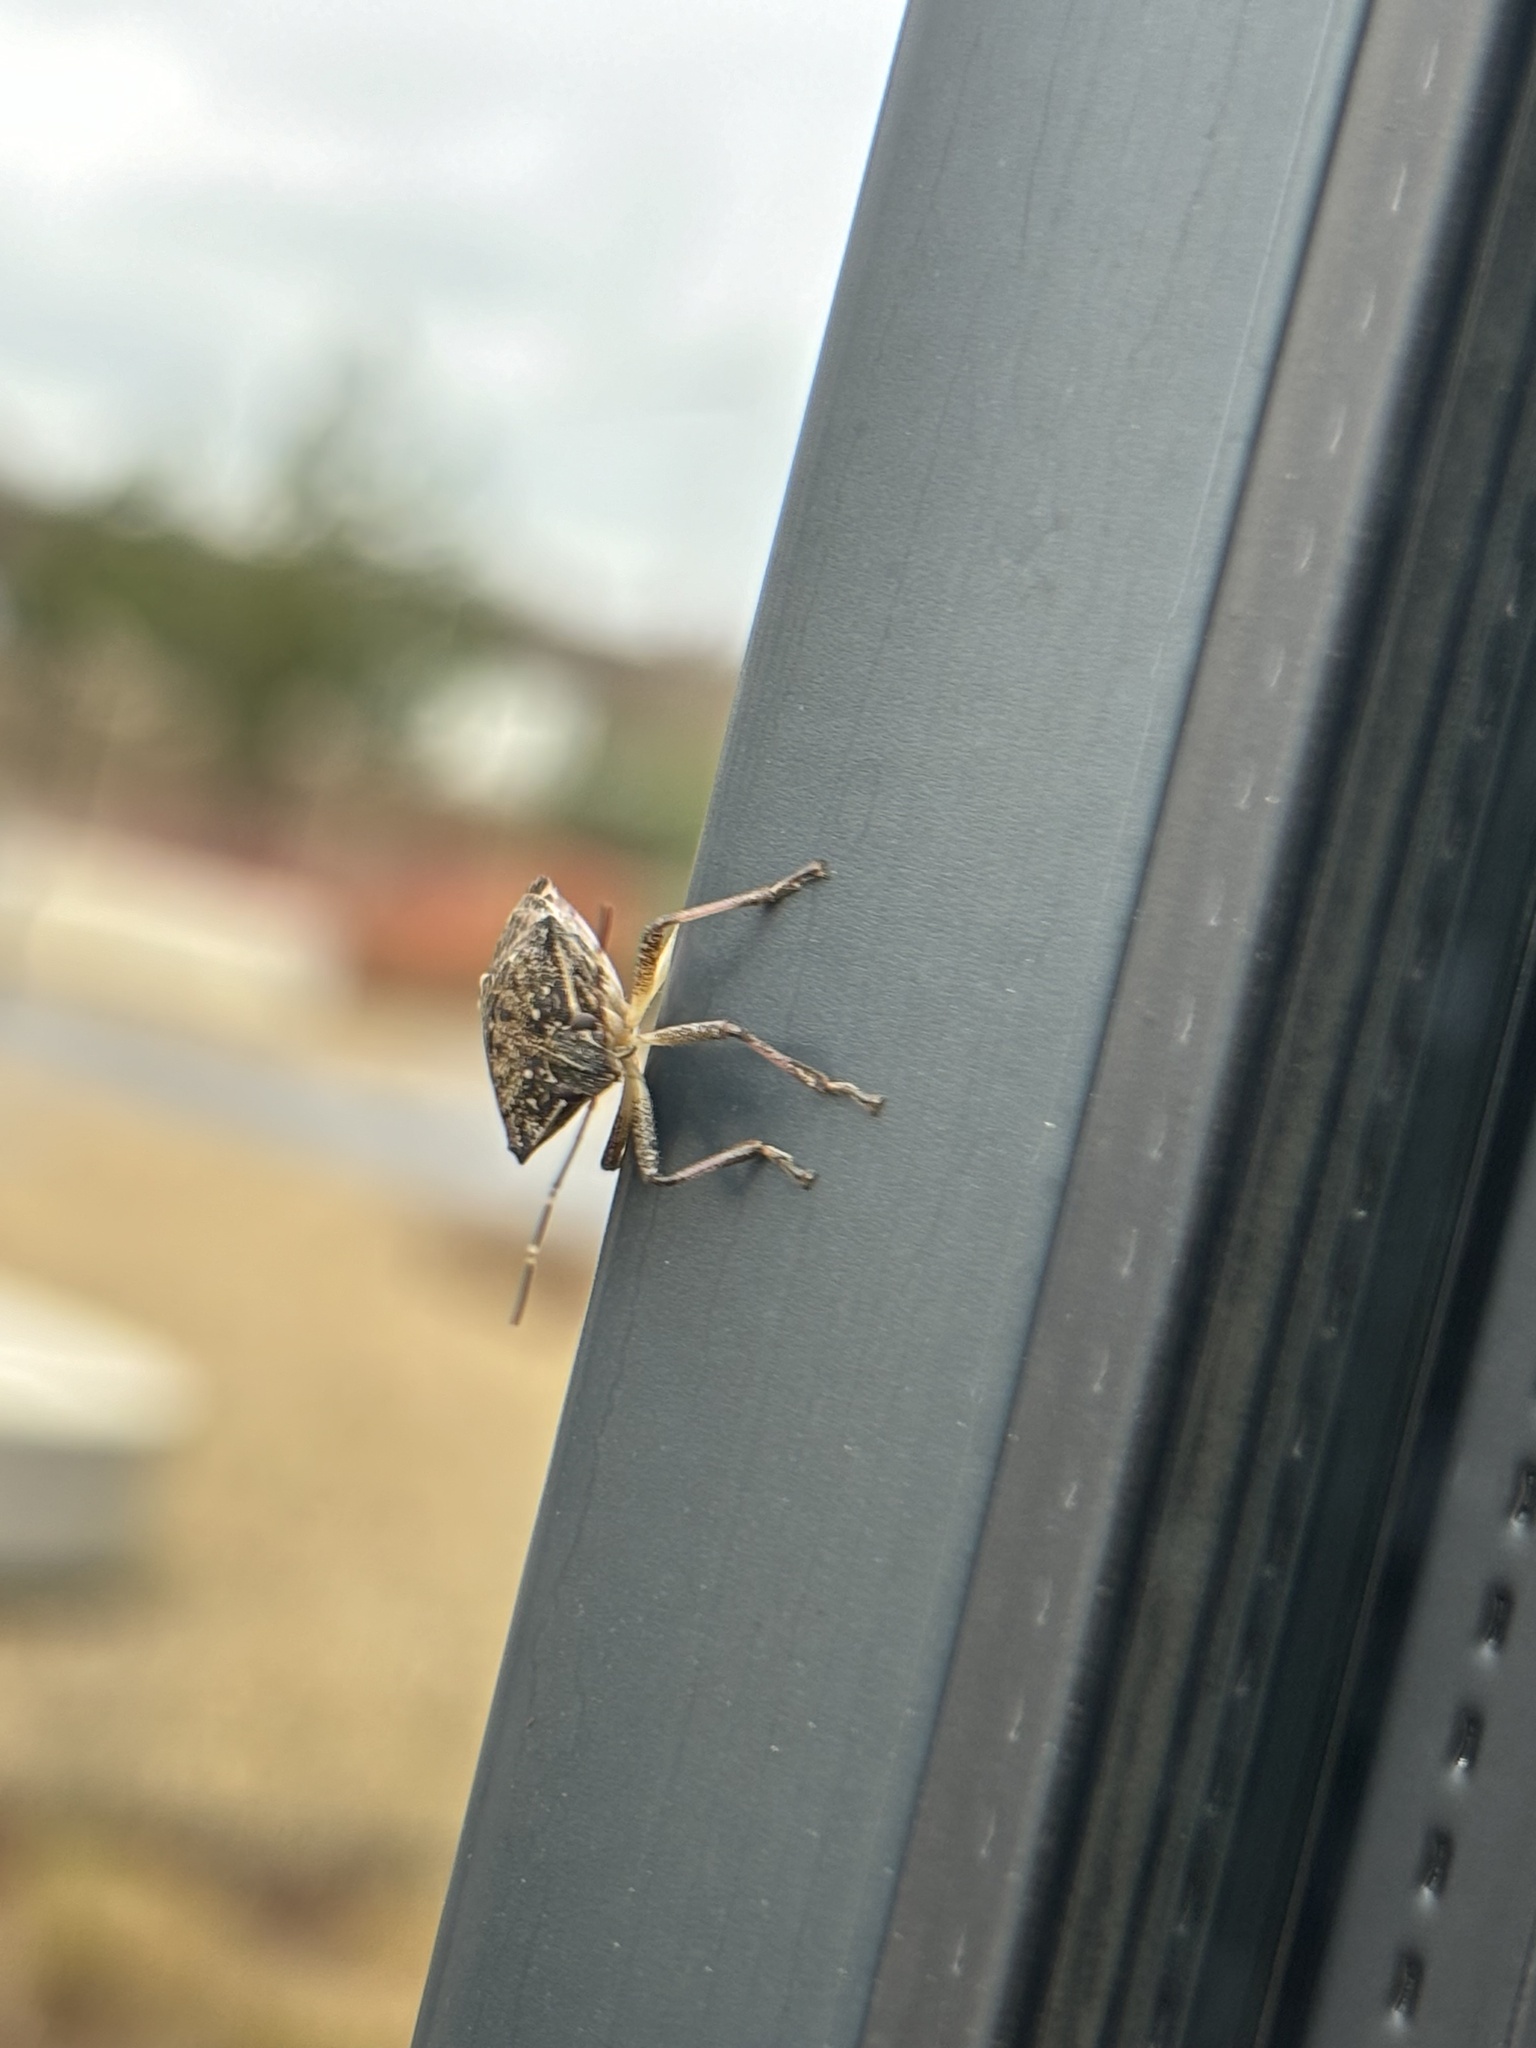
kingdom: Animalia
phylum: Arthropoda
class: Insecta
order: Hemiptera
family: Pentatomidae
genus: Halyomorpha
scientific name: Halyomorpha halys
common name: Brown marmorated stink bug
